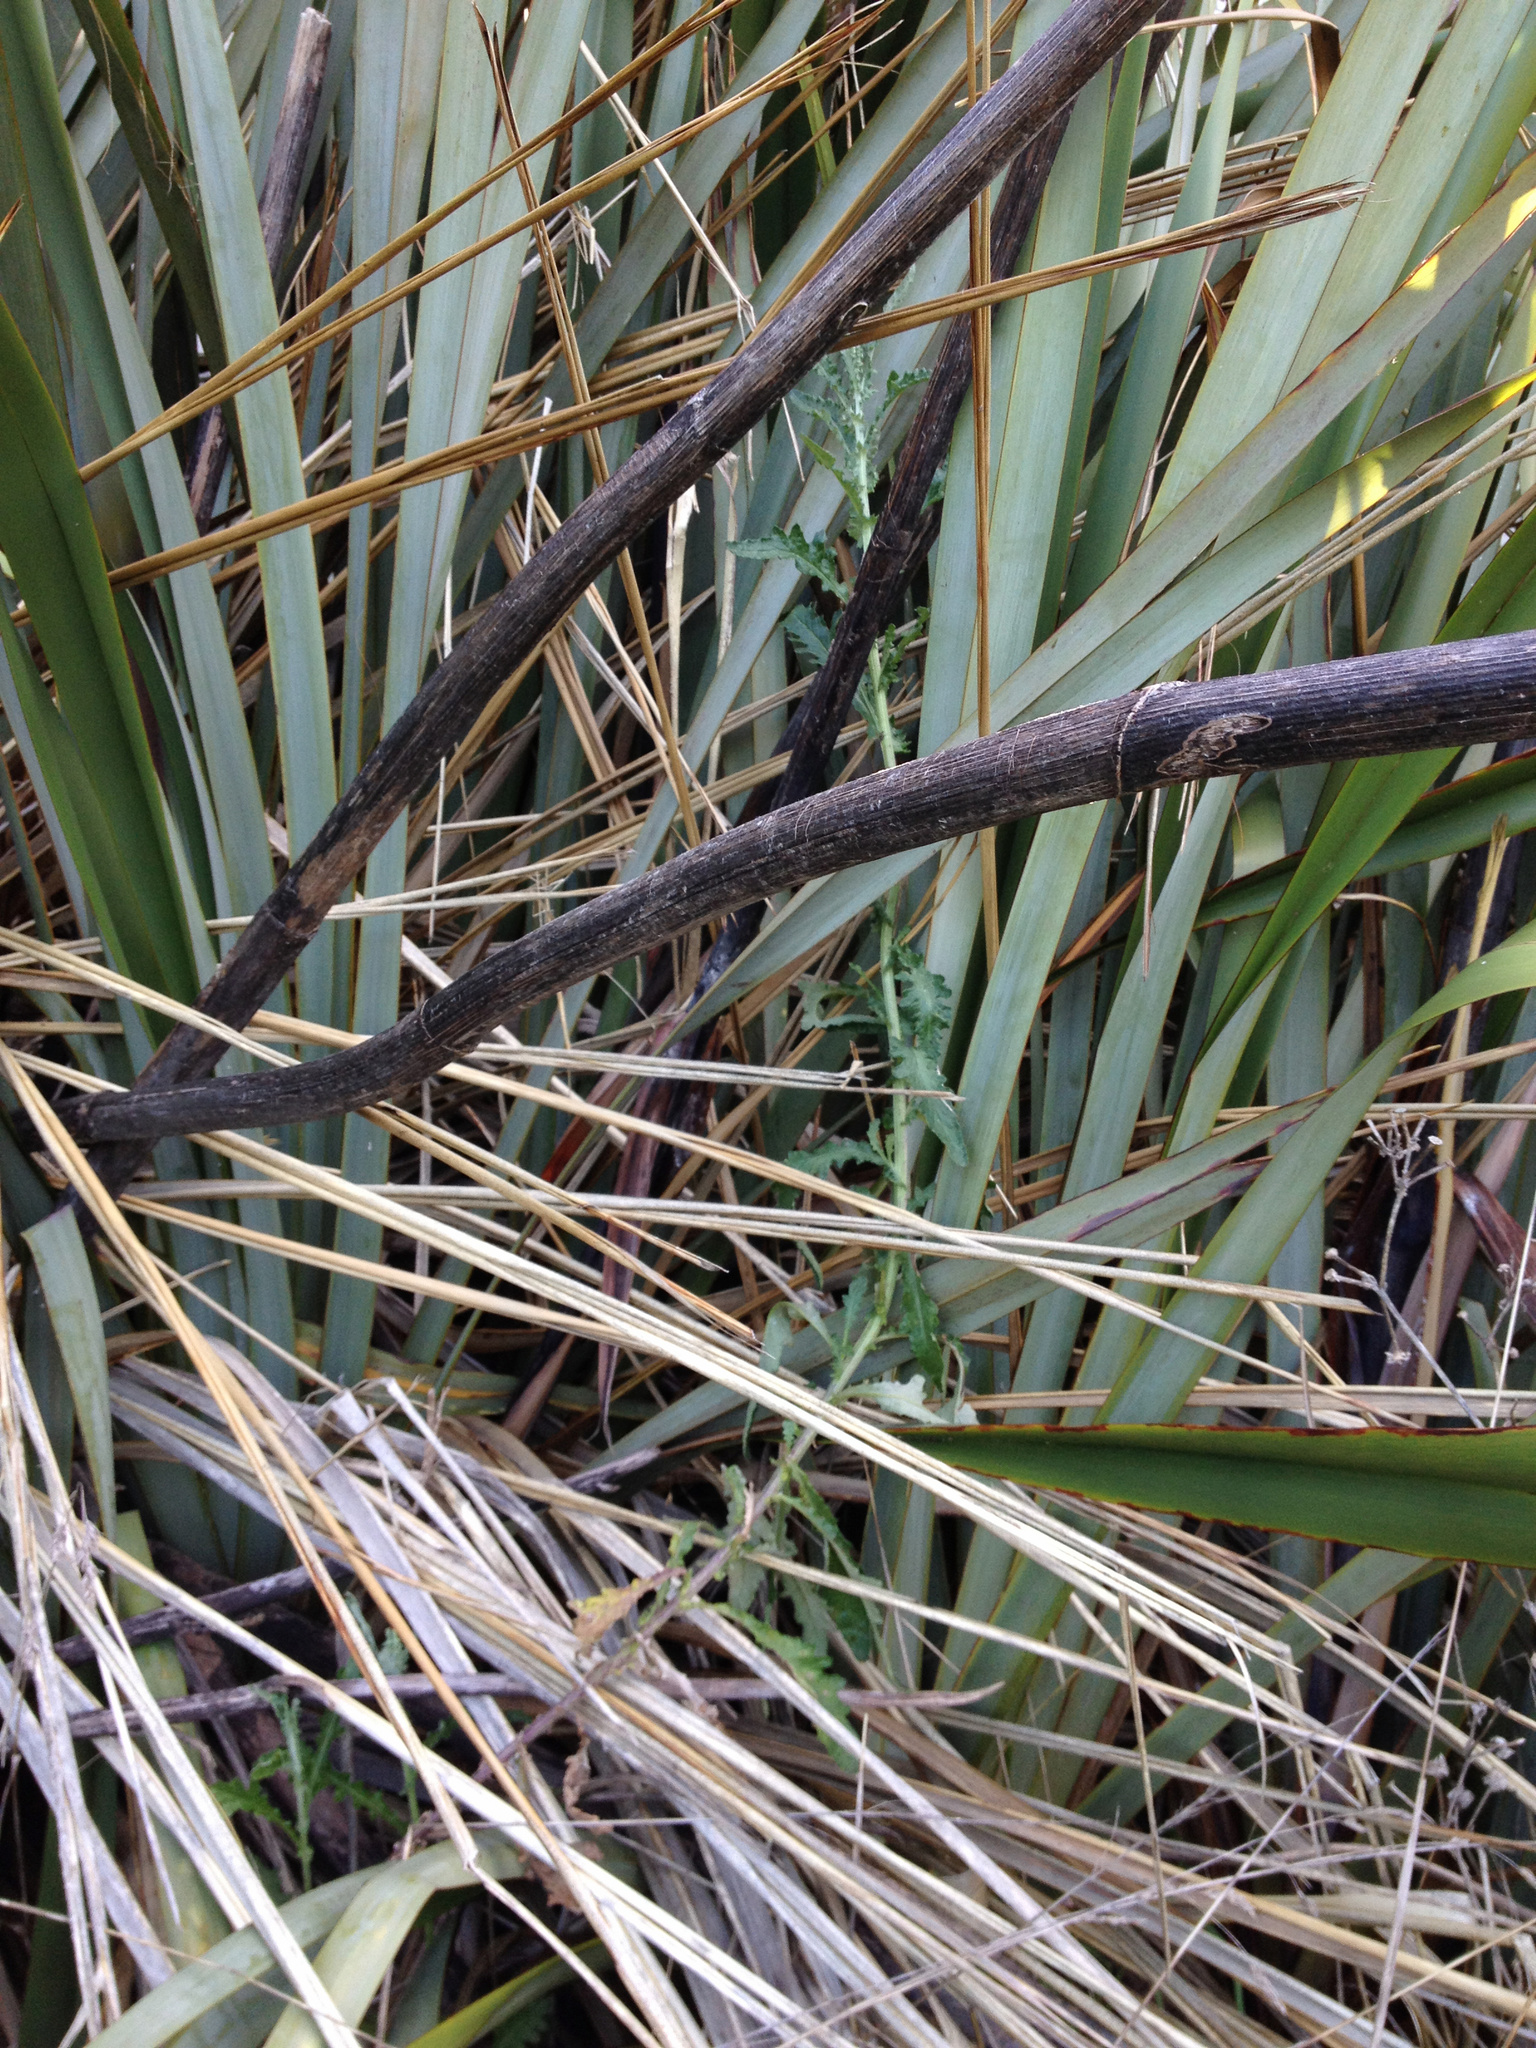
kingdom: Plantae
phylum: Tracheophyta
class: Magnoliopsida
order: Asterales
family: Asteraceae
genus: Senecio
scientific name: Senecio glomeratus
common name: Cutleaf burnweed
